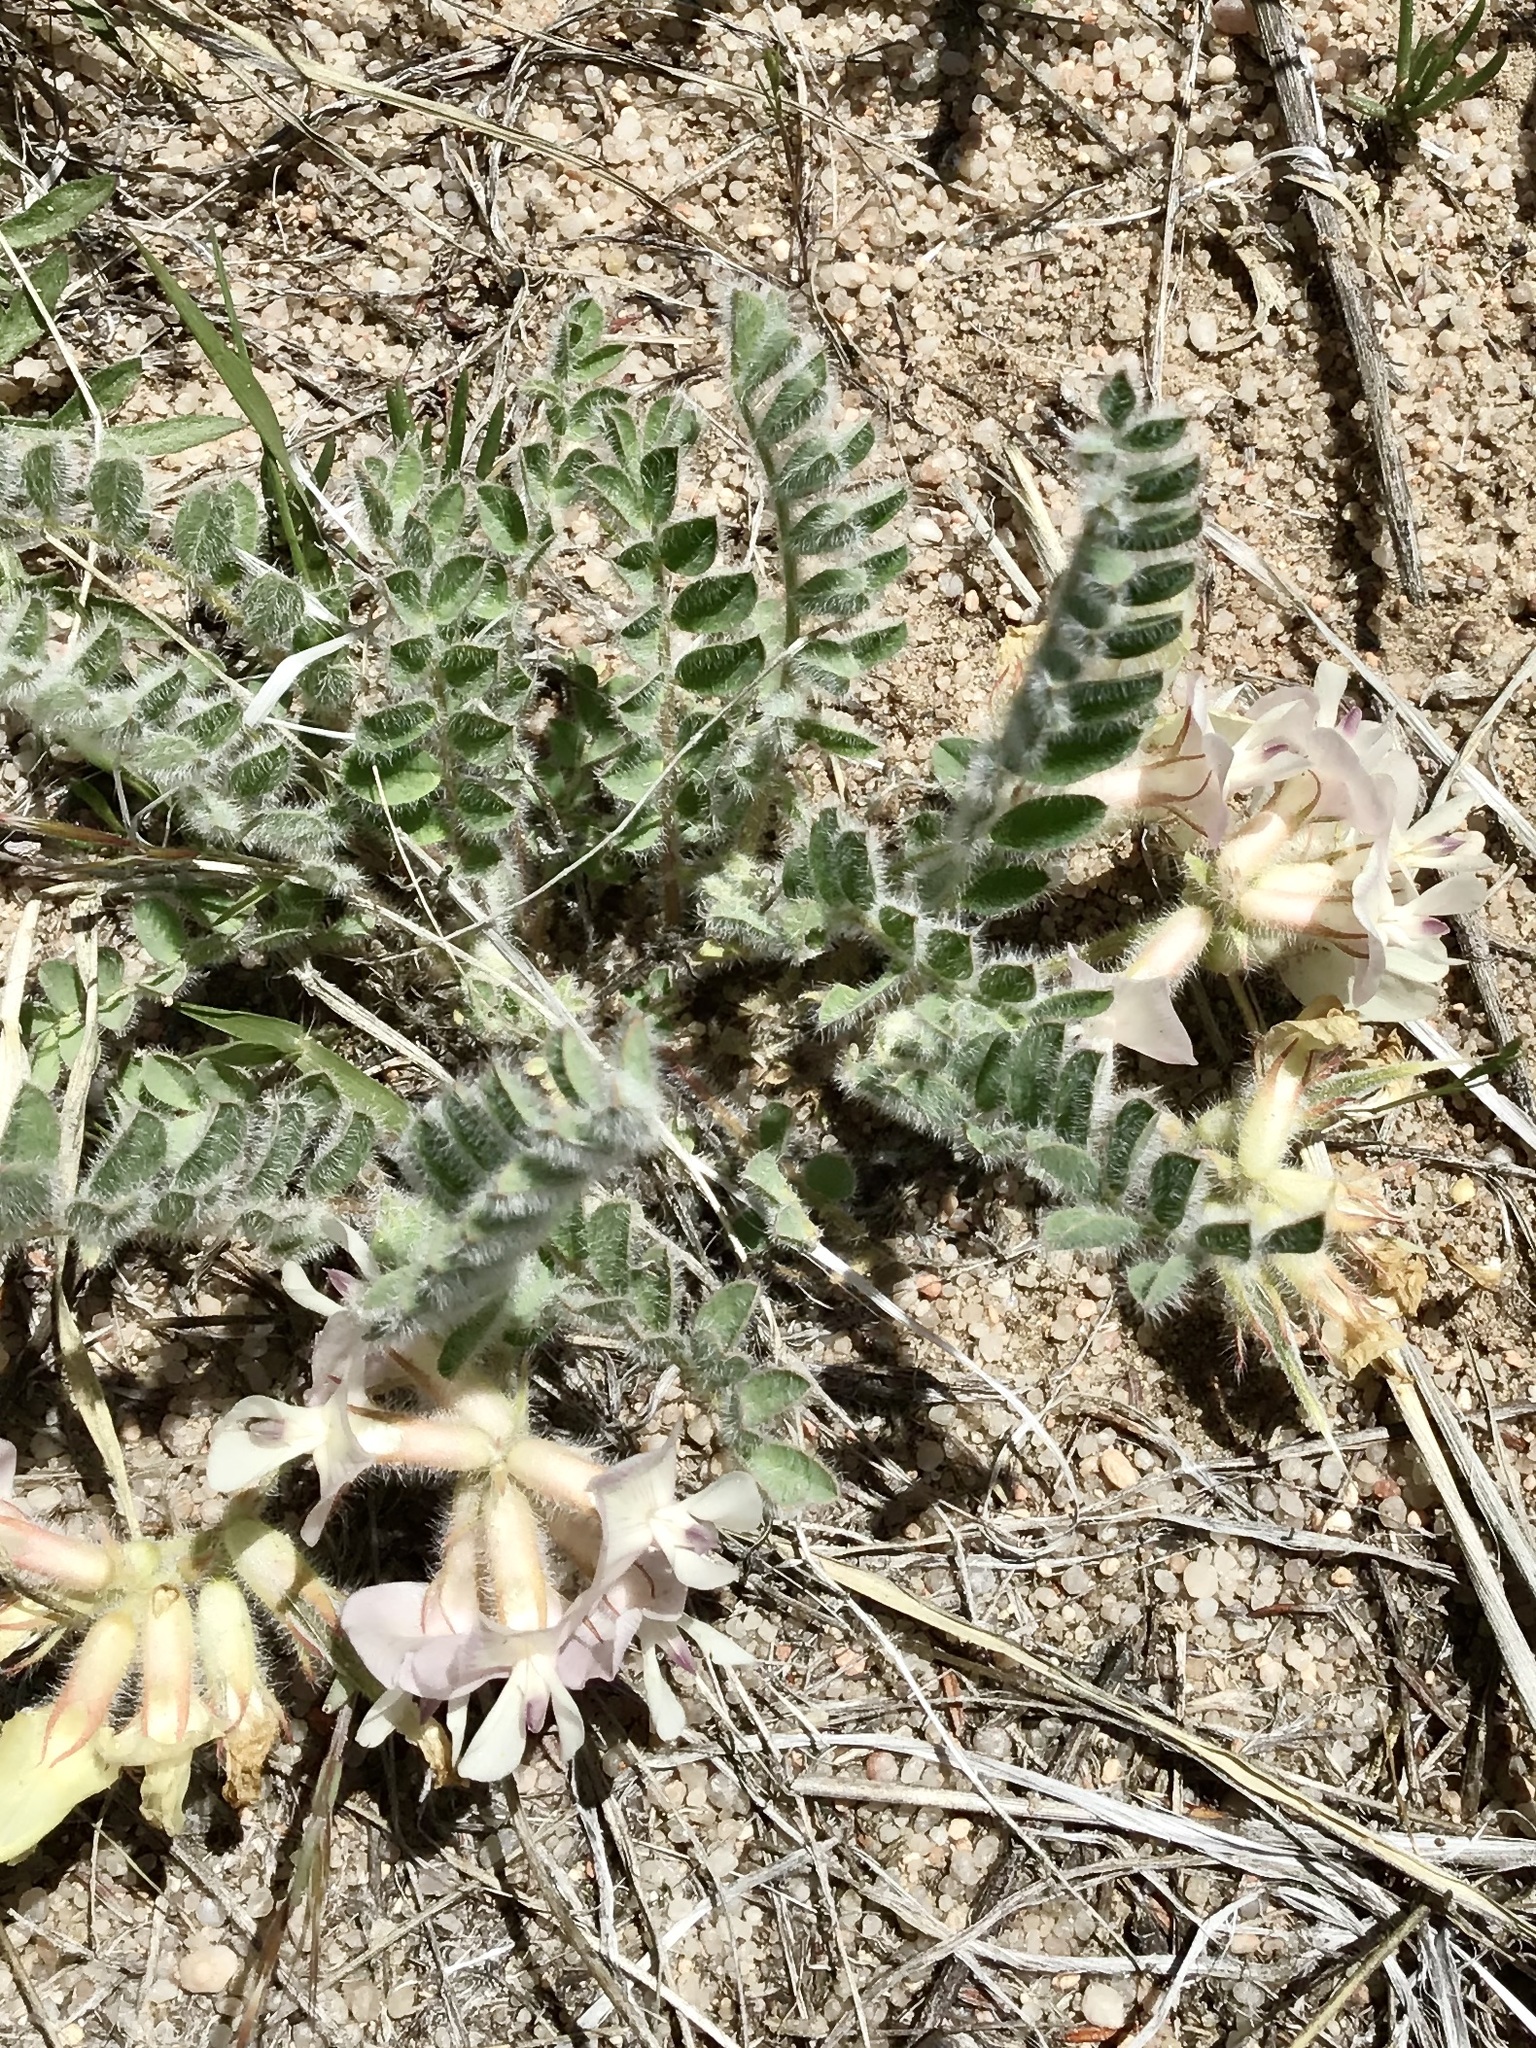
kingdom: Plantae
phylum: Tracheophyta
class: Magnoliopsida
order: Fabales
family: Fabaceae
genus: Astragalus
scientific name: Astragalus parryi
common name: Parry milk-vetch
